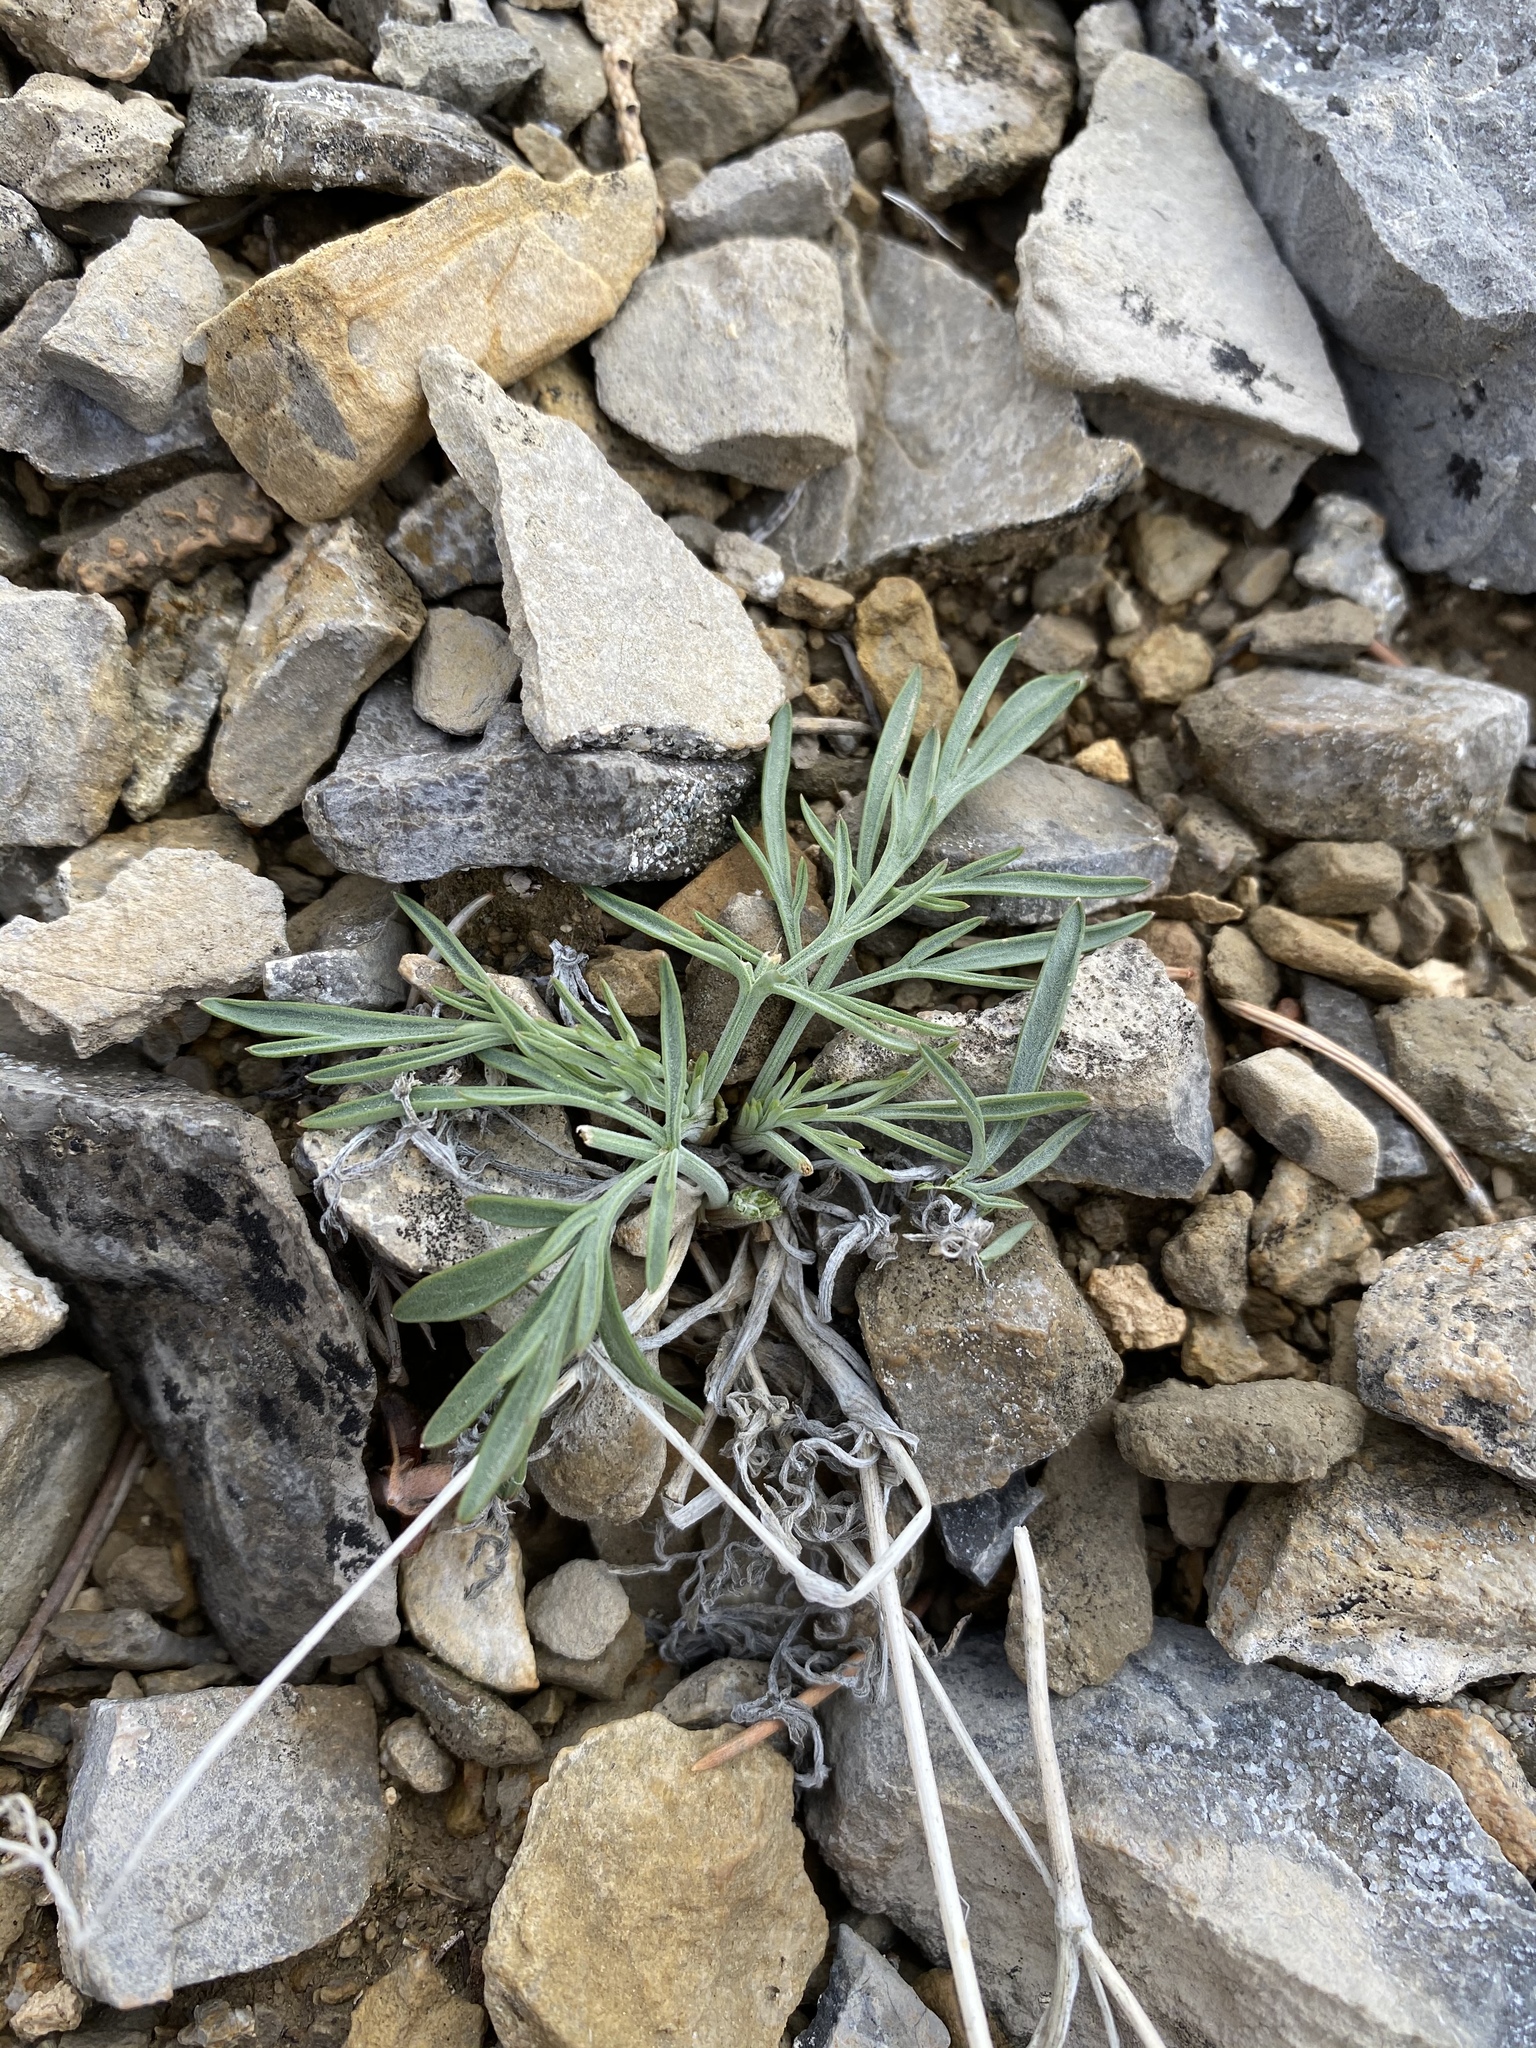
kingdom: Plantae
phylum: Tracheophyta
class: Magnoliopsida
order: Apiales
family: Apiaceae
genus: Lomatium
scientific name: Lomatium nevadense
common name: Nevada lomatium
